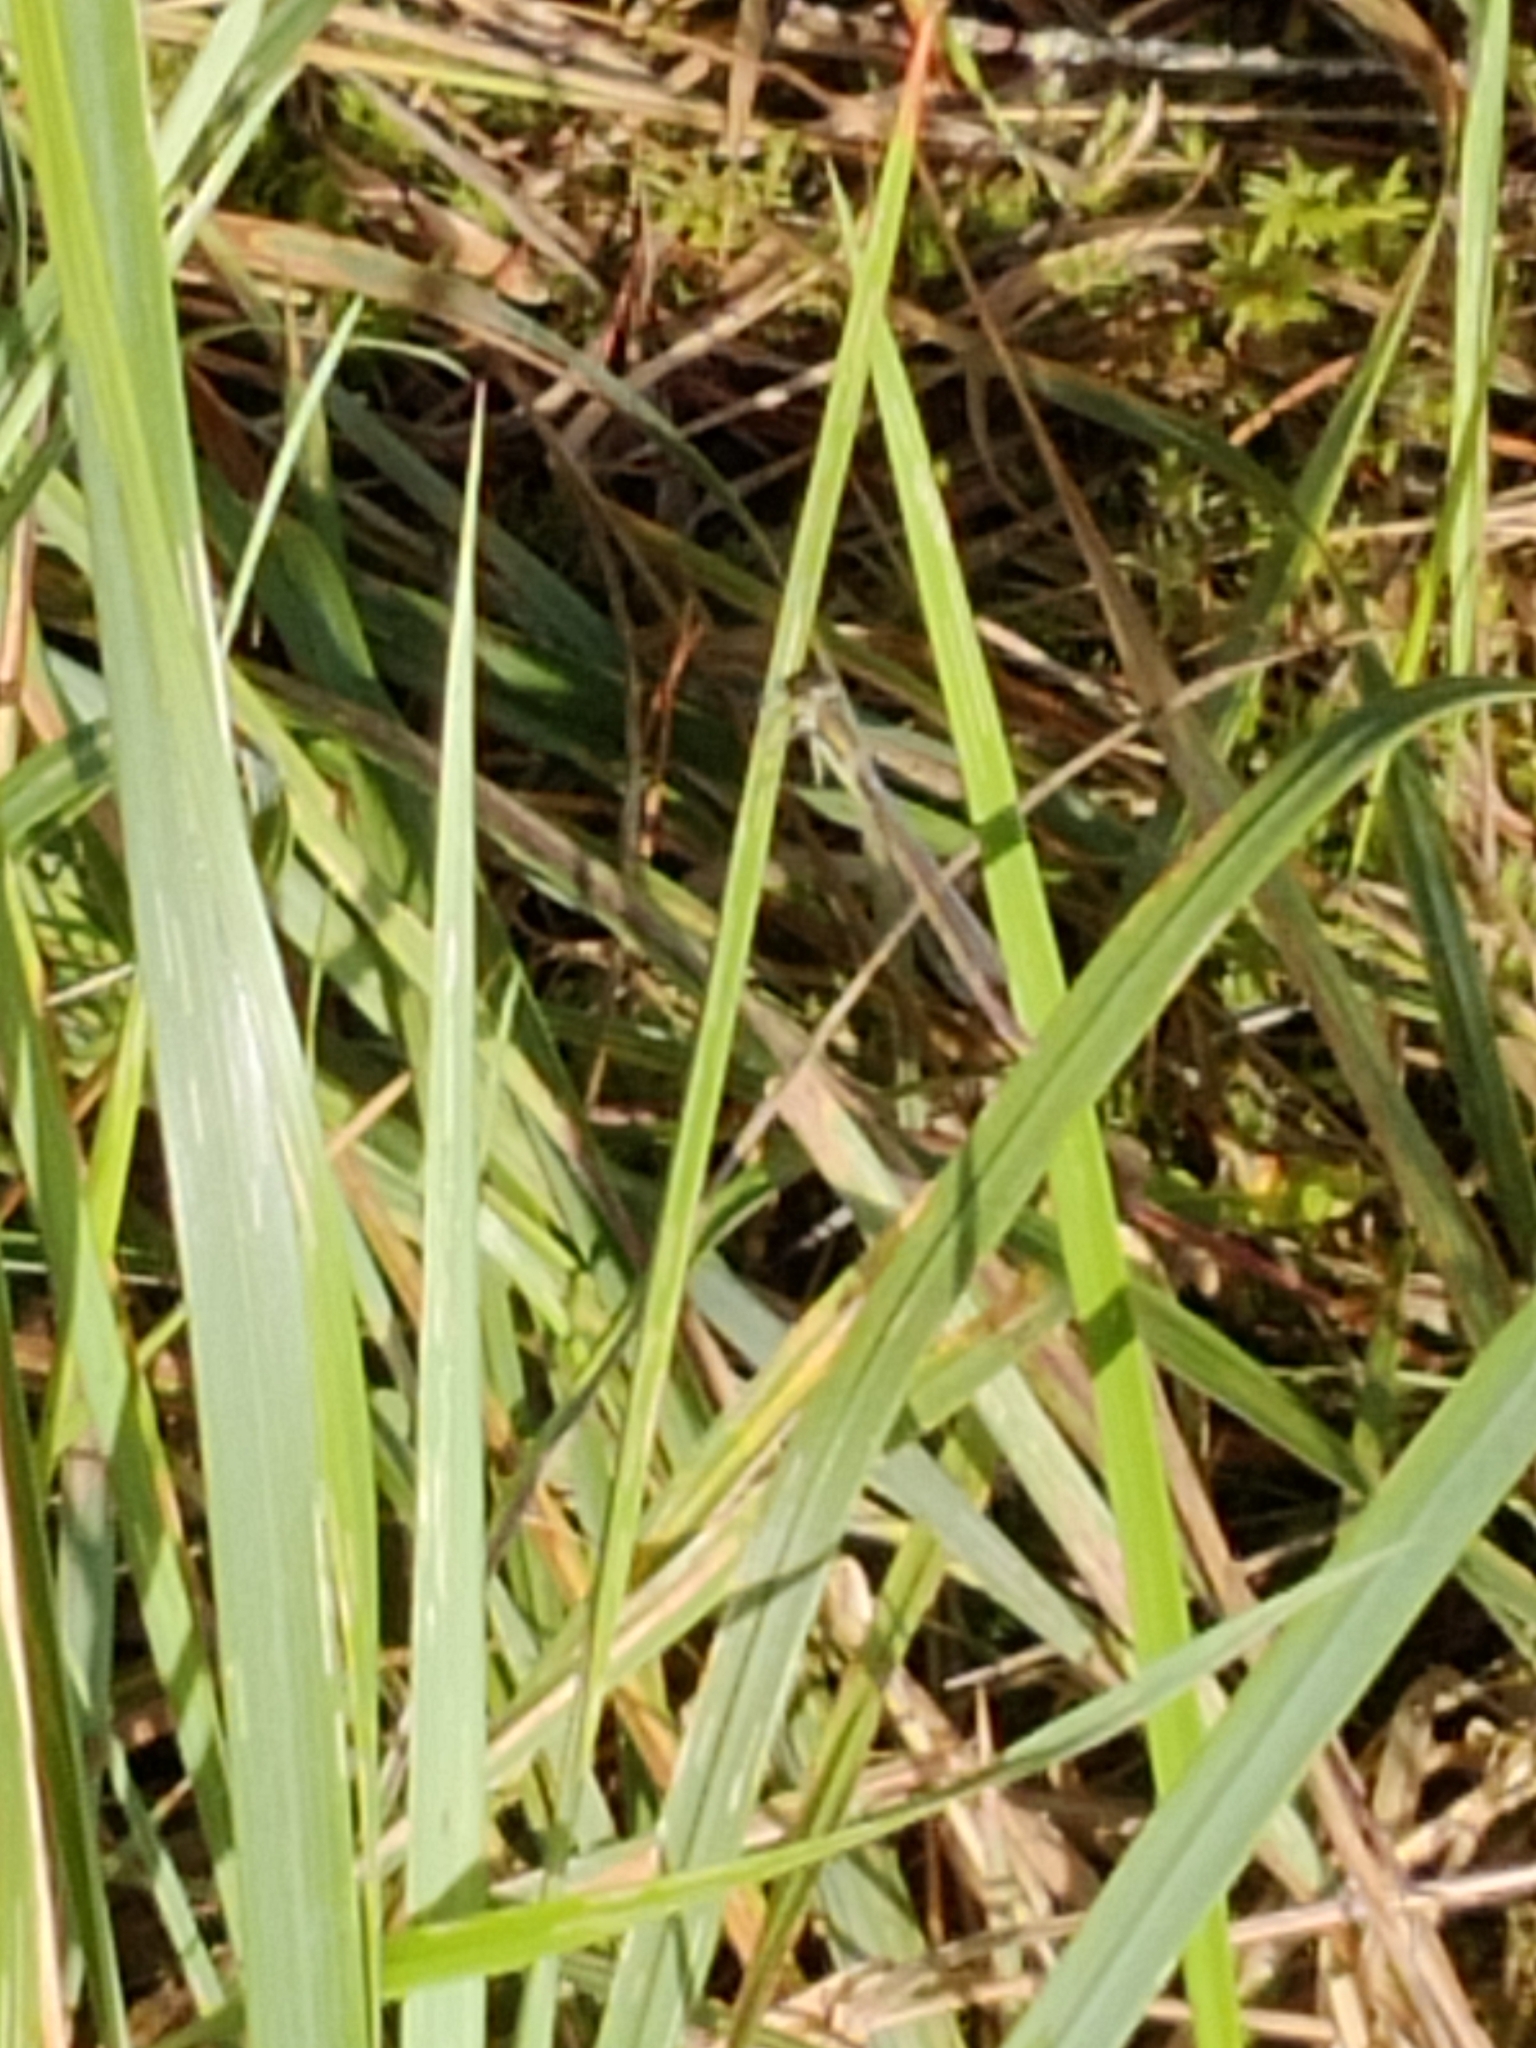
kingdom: Animalia
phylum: Arthropoda
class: Insecta
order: Odonata
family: Lestidae
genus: Lestes
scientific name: Lestes sponsa
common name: Common spreadwing
